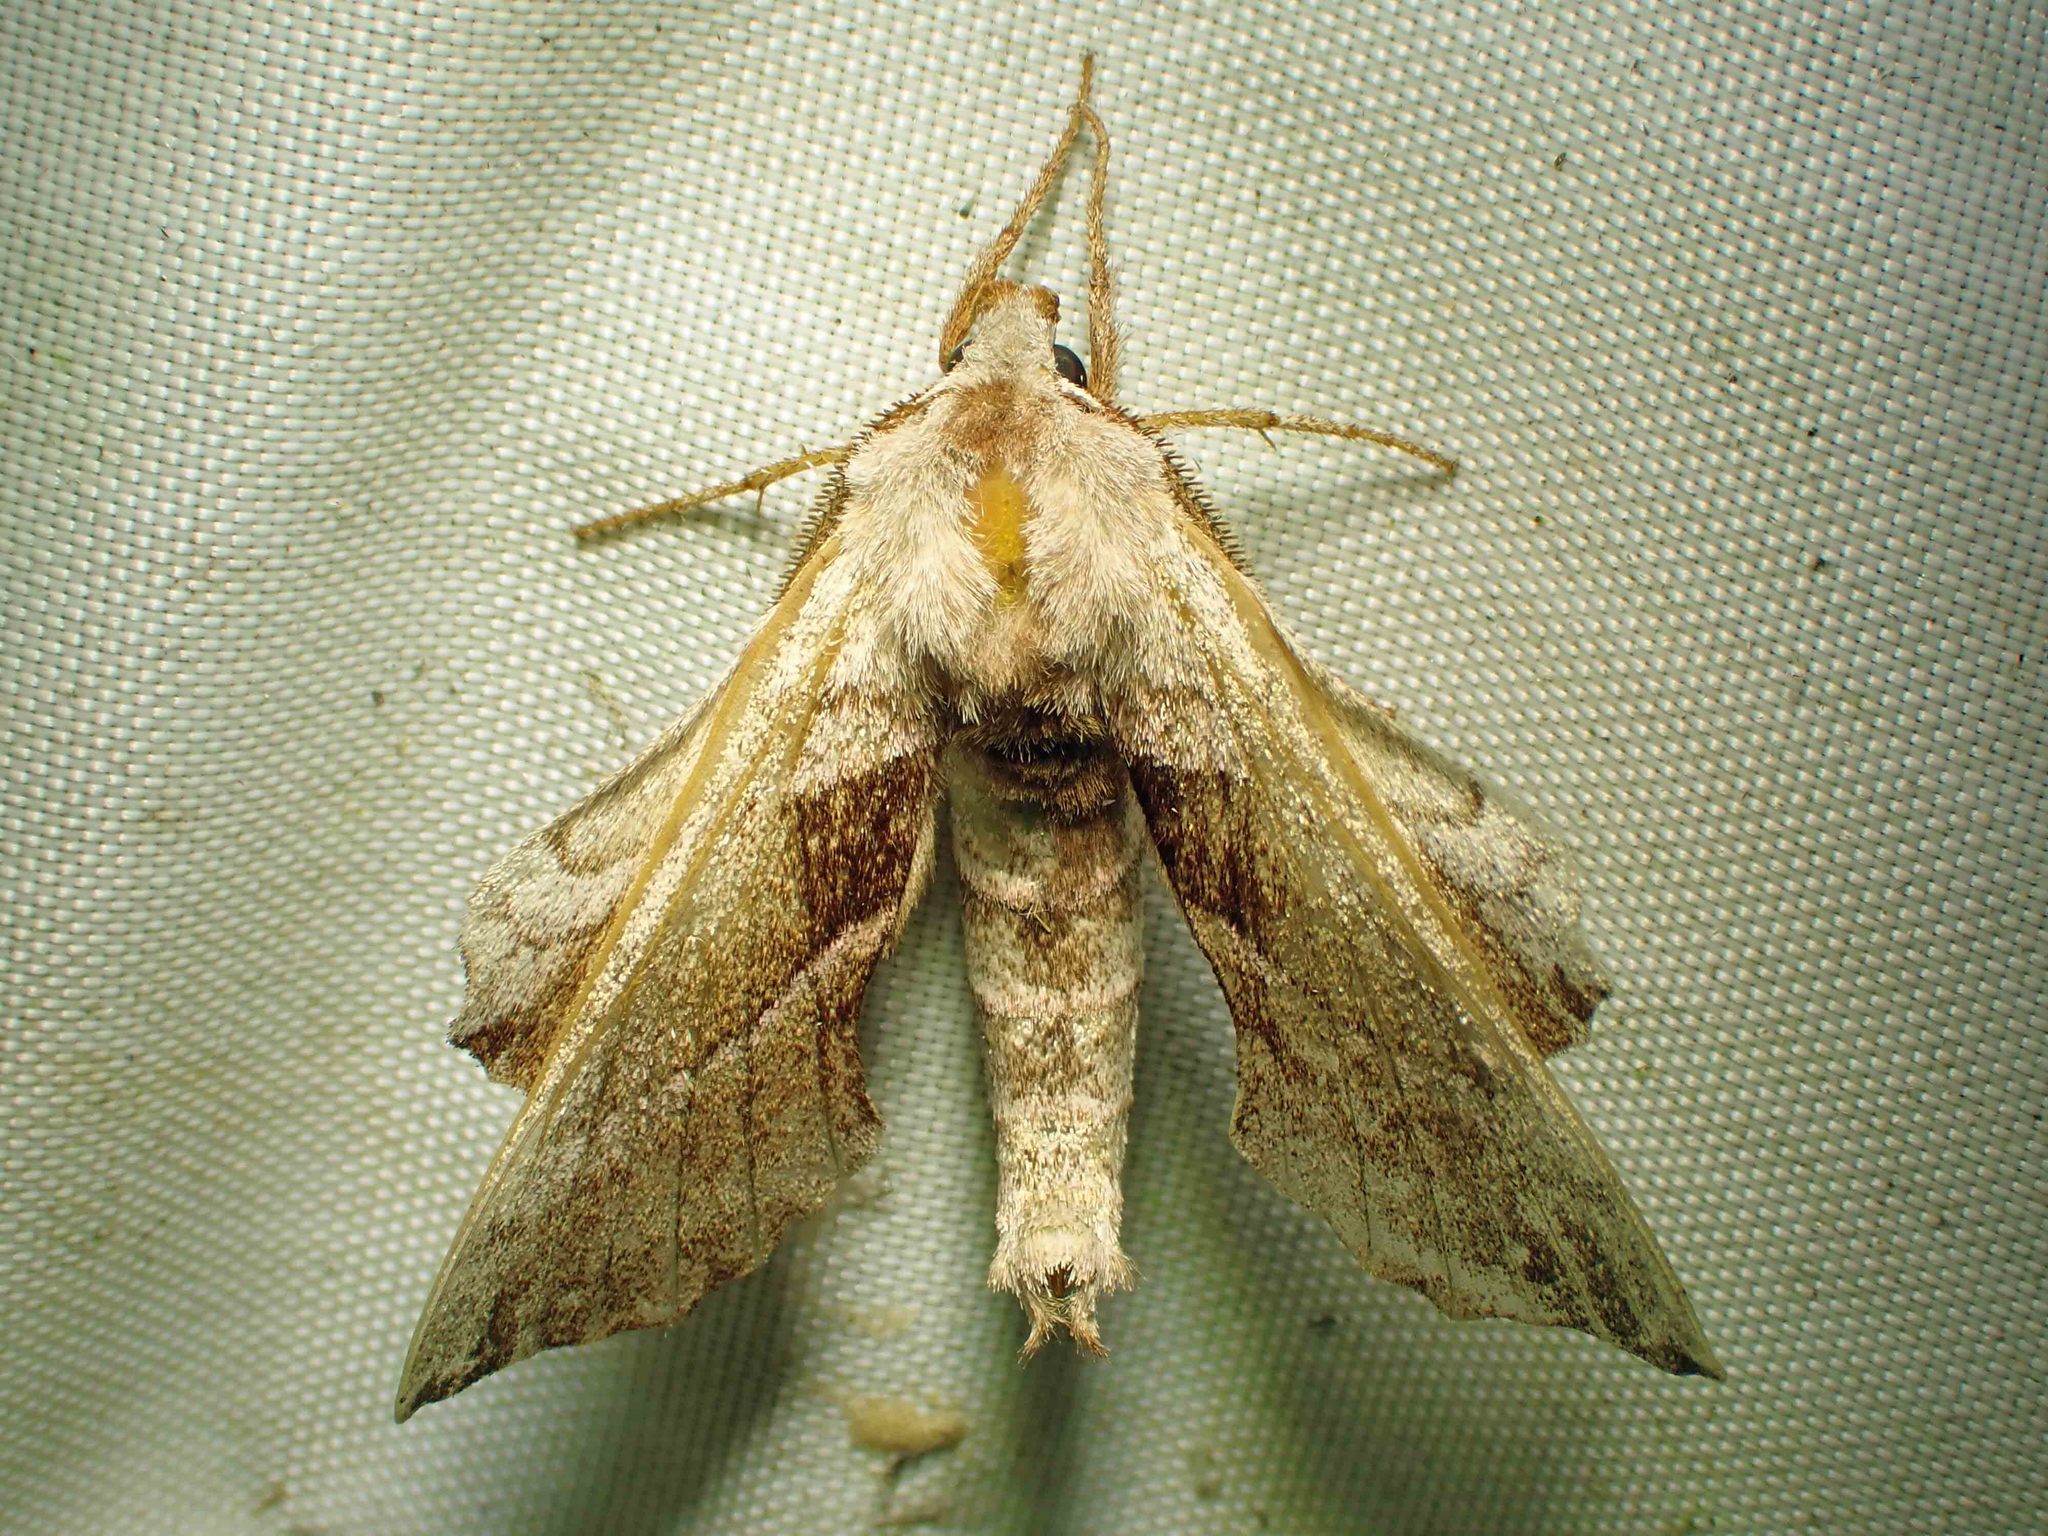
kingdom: Animalia
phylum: Arthropoda
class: Insecta
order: Lepidoptera
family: Sphingidae
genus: Amorpha
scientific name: Amorpha juglandis
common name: Walnut sphinx
